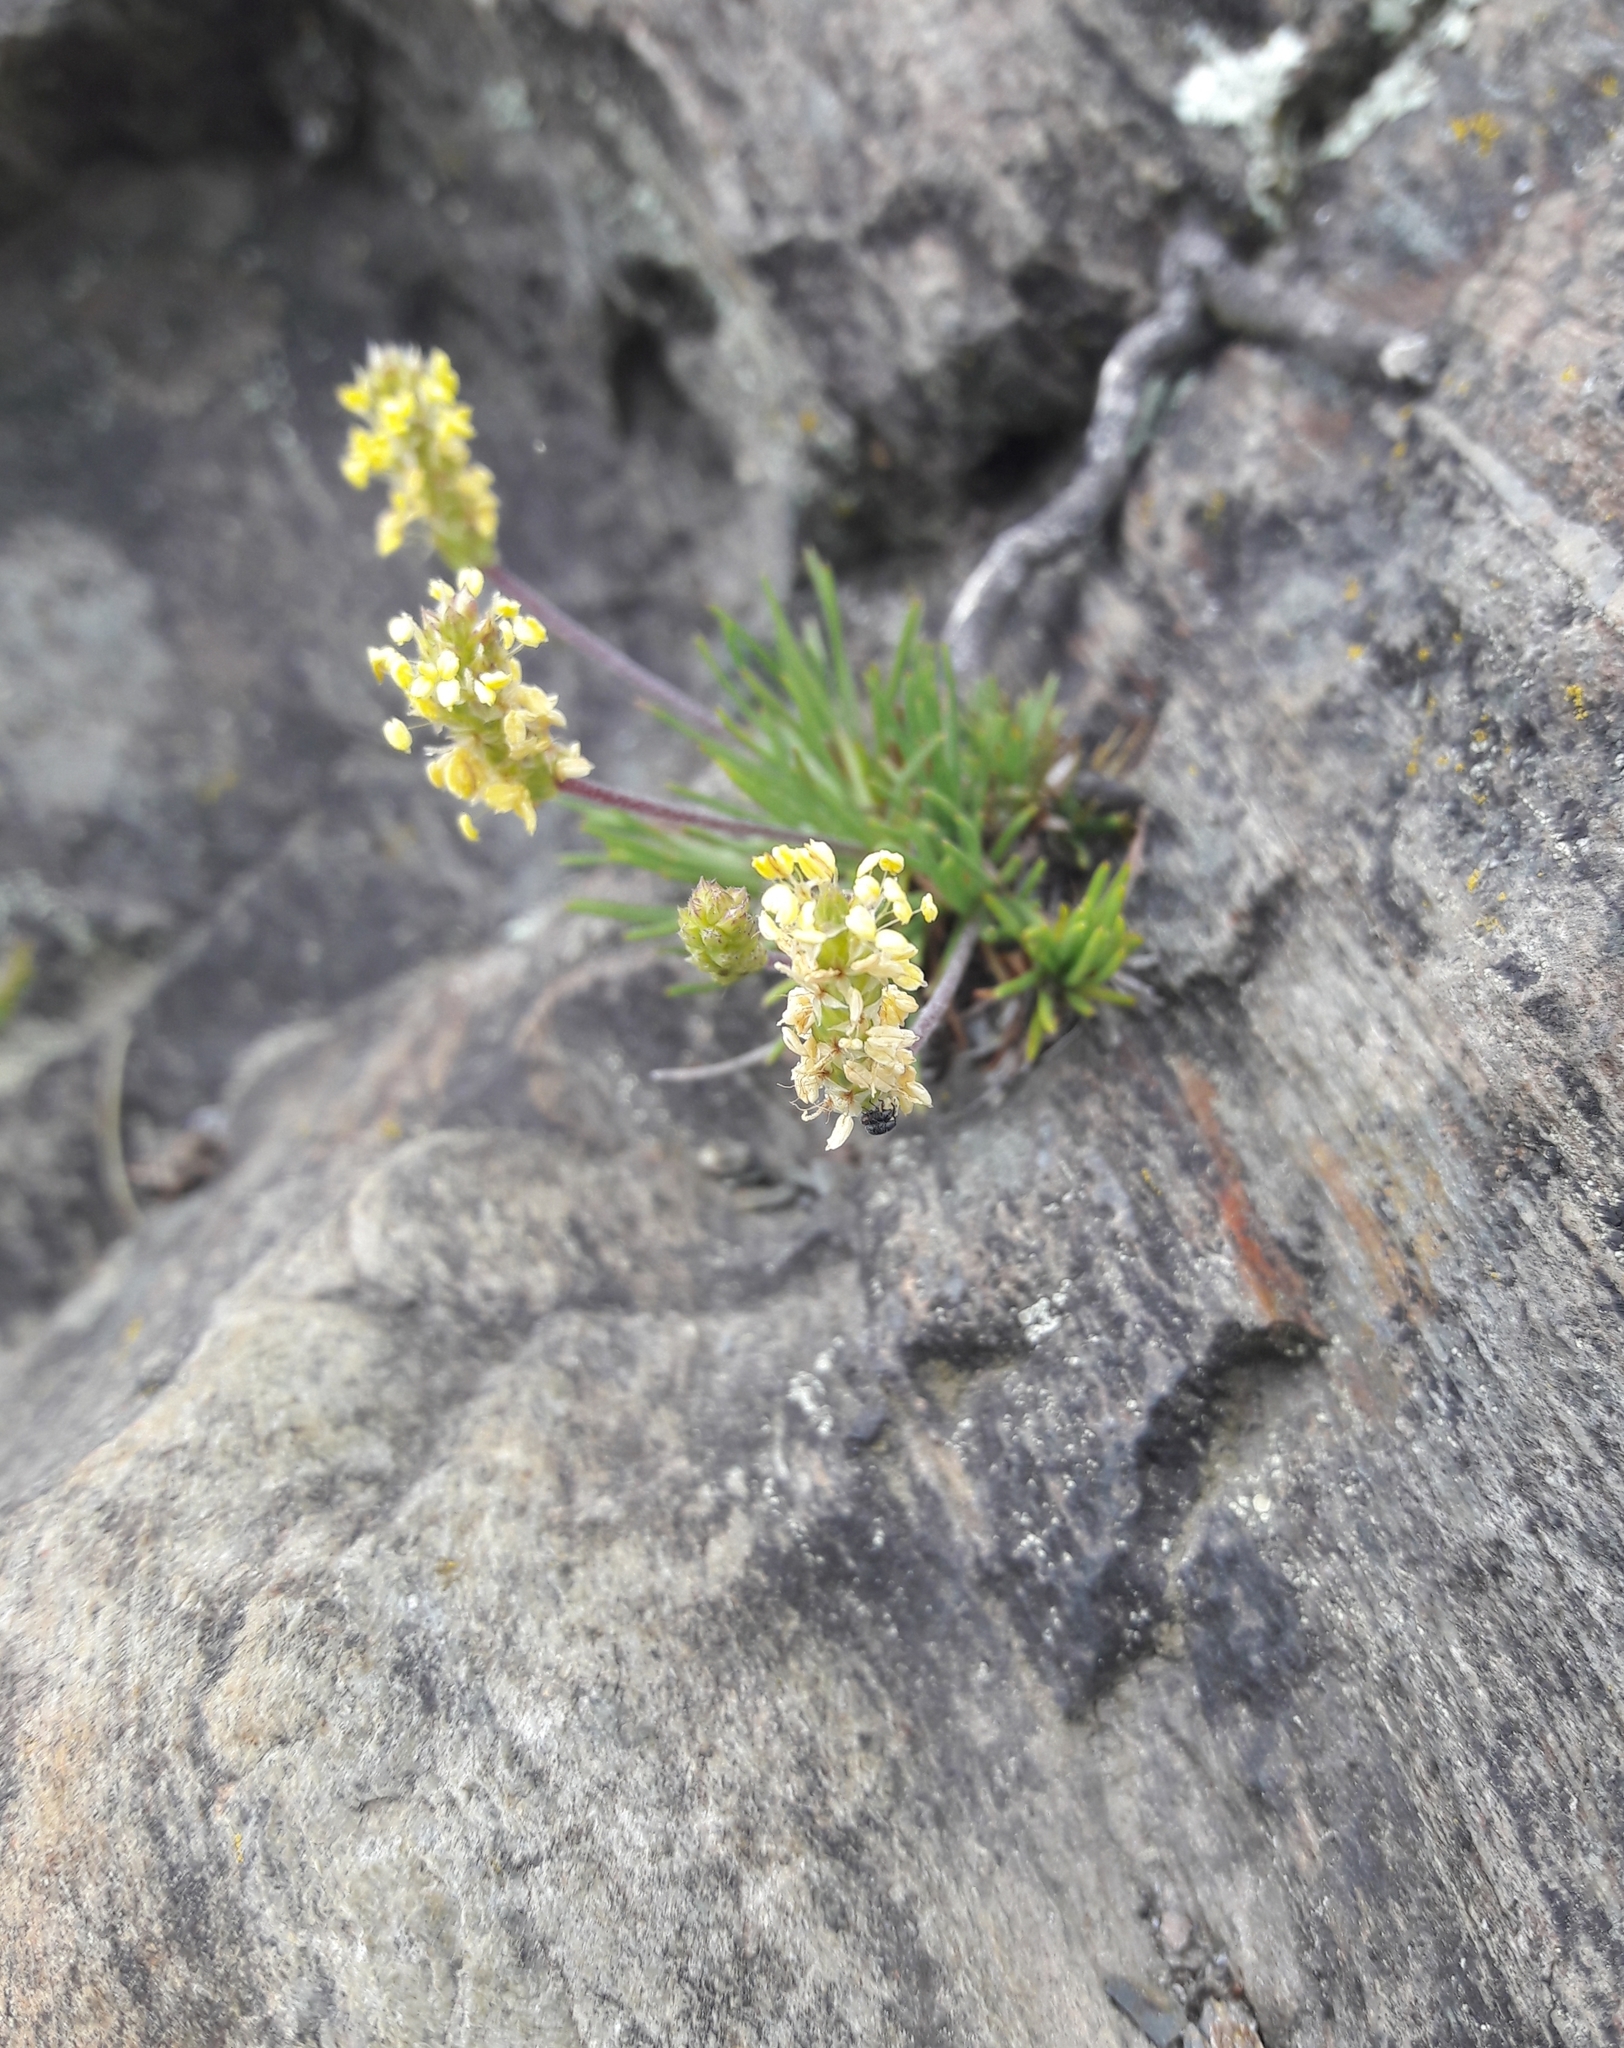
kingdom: Plantae
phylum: Tracheophyta
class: Magnoliopsida
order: Lamiales
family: Plantaginaceae
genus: Plantago
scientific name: Plantago maritima
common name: Sea plantain
